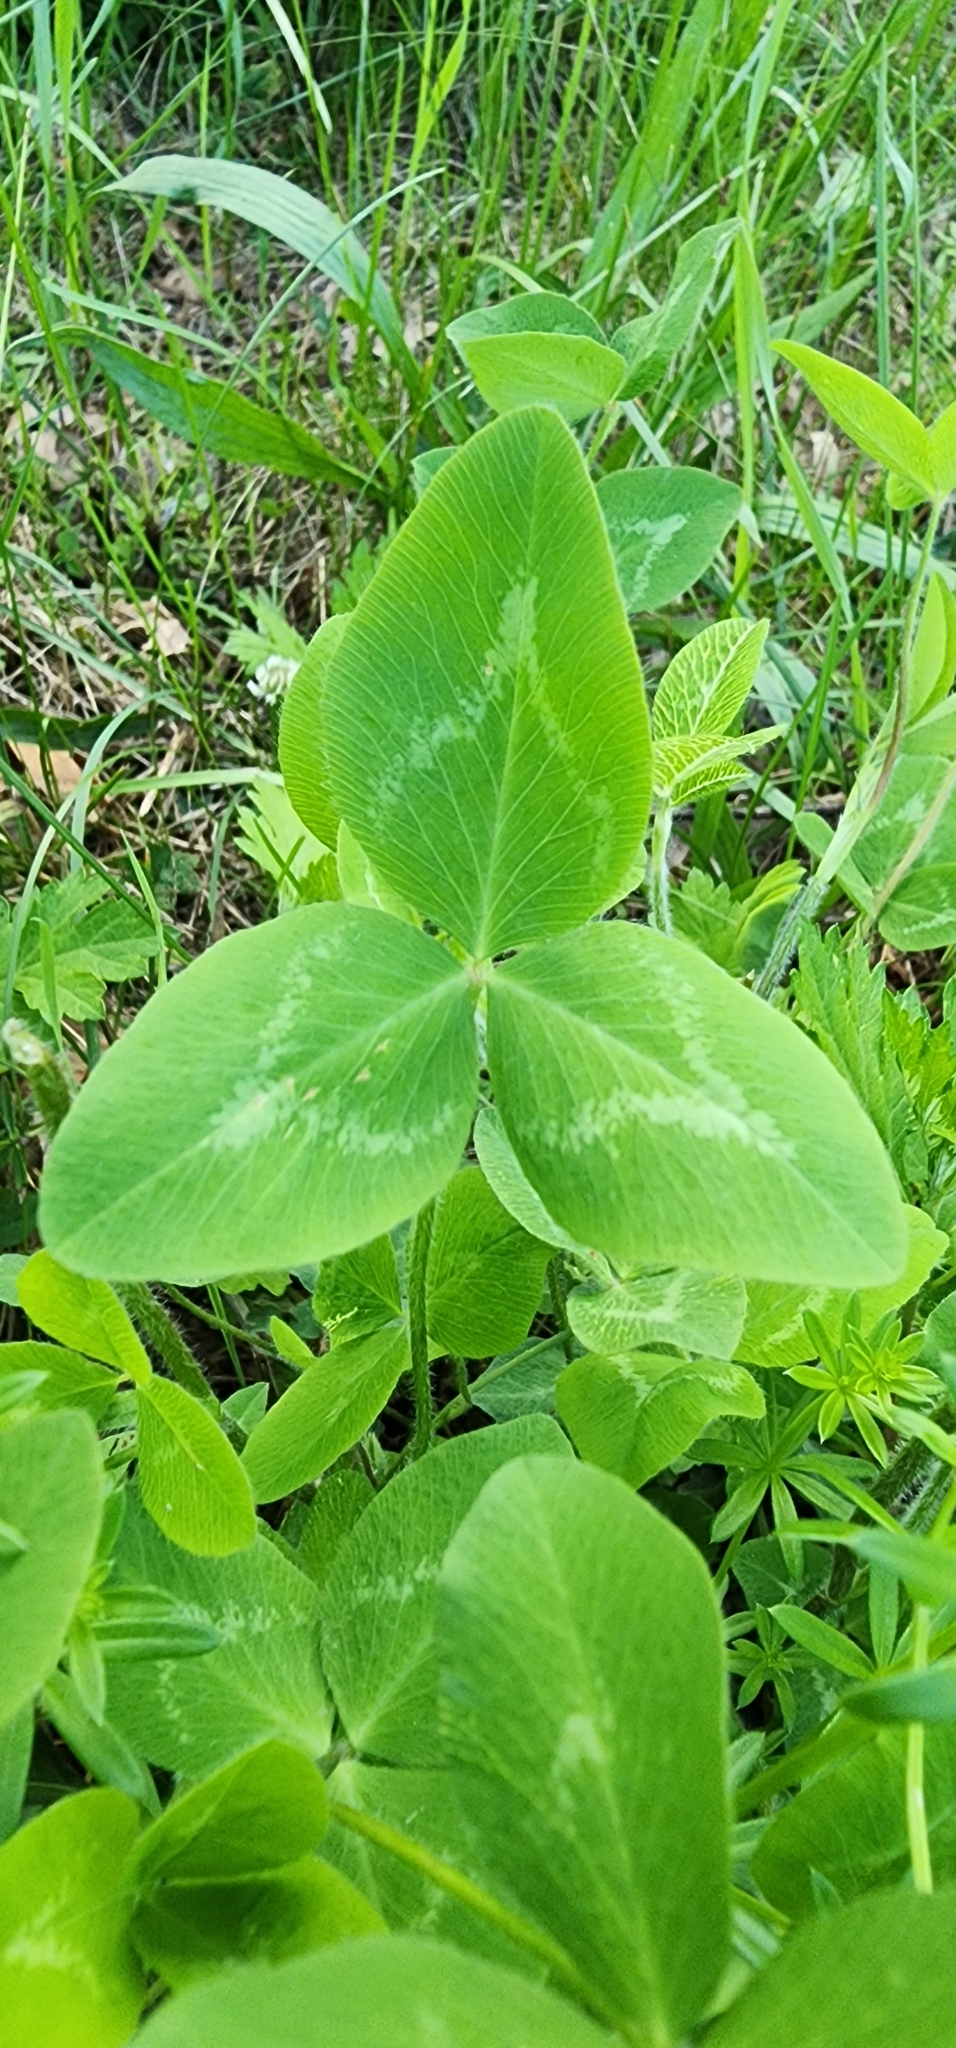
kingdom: Plantae
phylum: Tracheophyta
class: Magnoliopsida
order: Fabales
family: Fabaceae
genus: Trifolium
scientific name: Trifolium pratense
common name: Red clover
